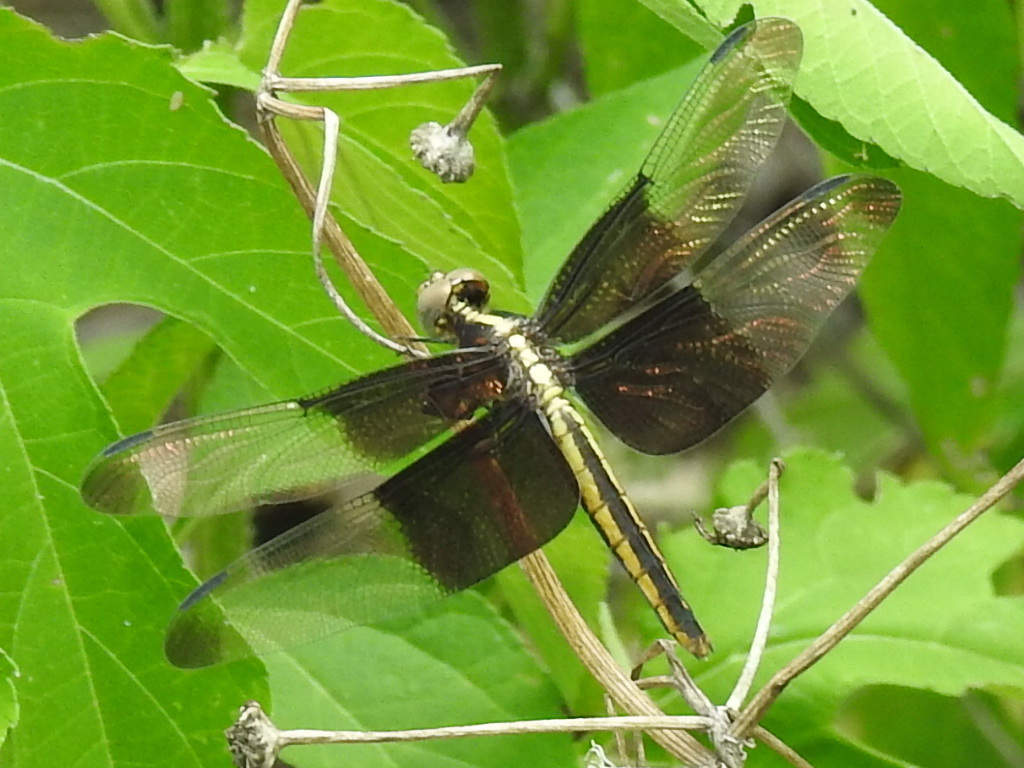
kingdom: Animalia
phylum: Arthropoda
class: Insecta
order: Odonata
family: Libellulidae
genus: Libellula
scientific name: Libellula luctuosa
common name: Widow skimmer
